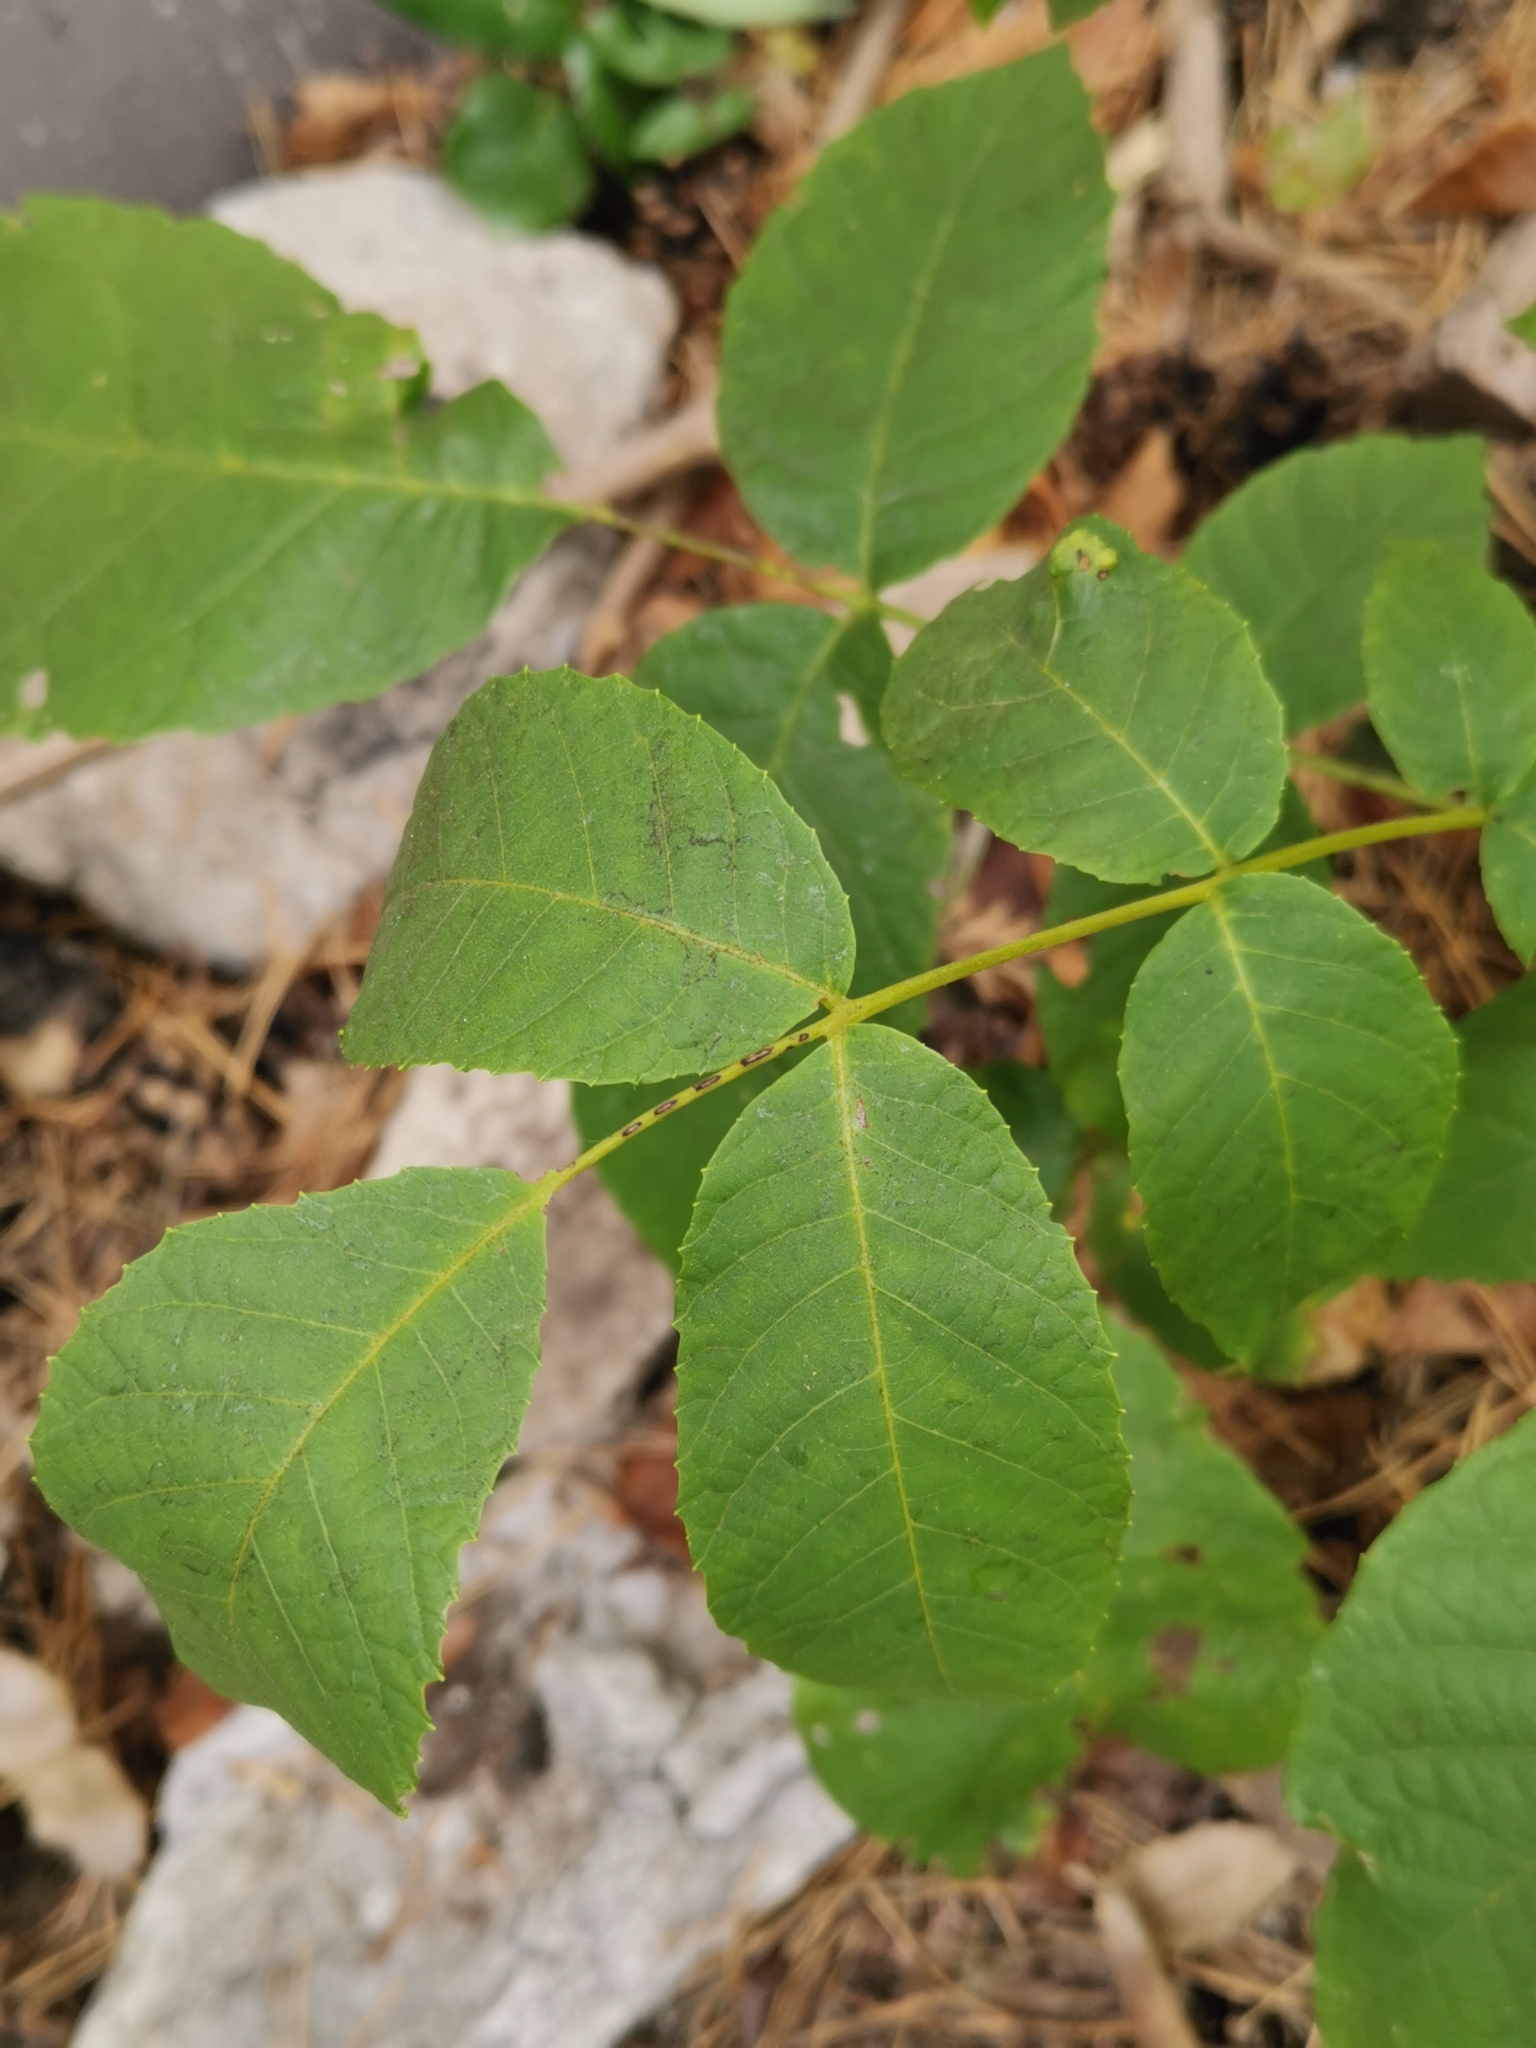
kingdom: Plantae
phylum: Tracheophyta
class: Magnoliopsida
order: Fagales
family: Juglandaceae
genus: Juglans
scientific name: Juglans regia
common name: Walnut
